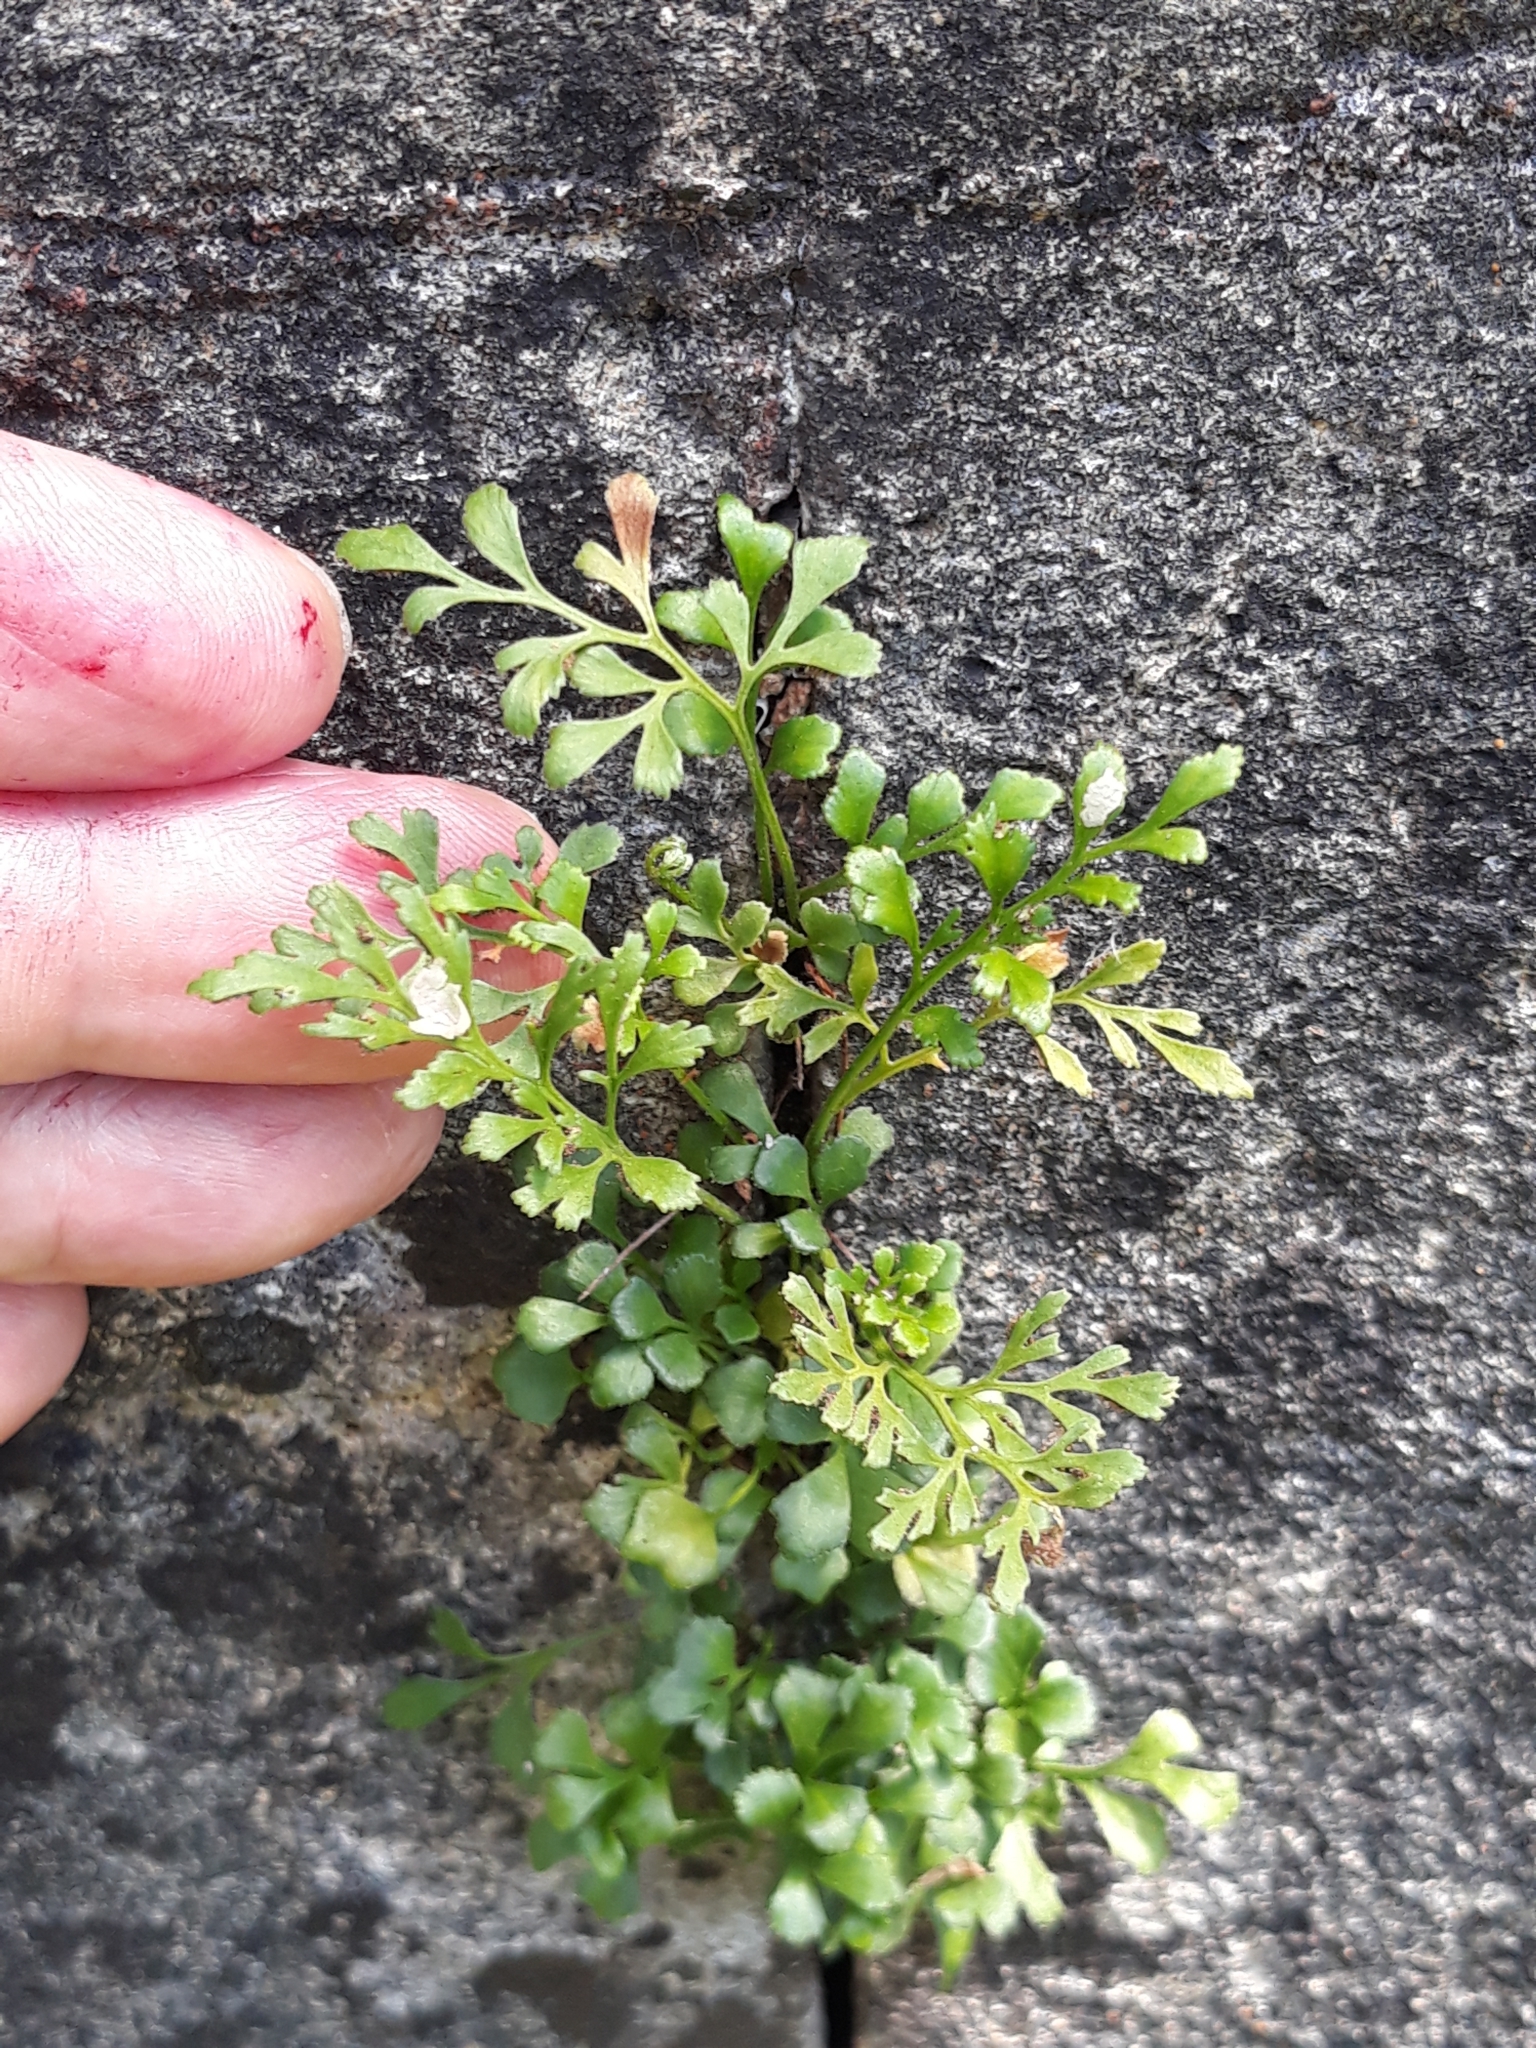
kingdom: Plantae
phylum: Tracheophyta
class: Polypodiopsida
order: Polypodiales
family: Aspleniaceae
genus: Asplenium
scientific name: Asplenium ruta-muraria
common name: Wall-rue
